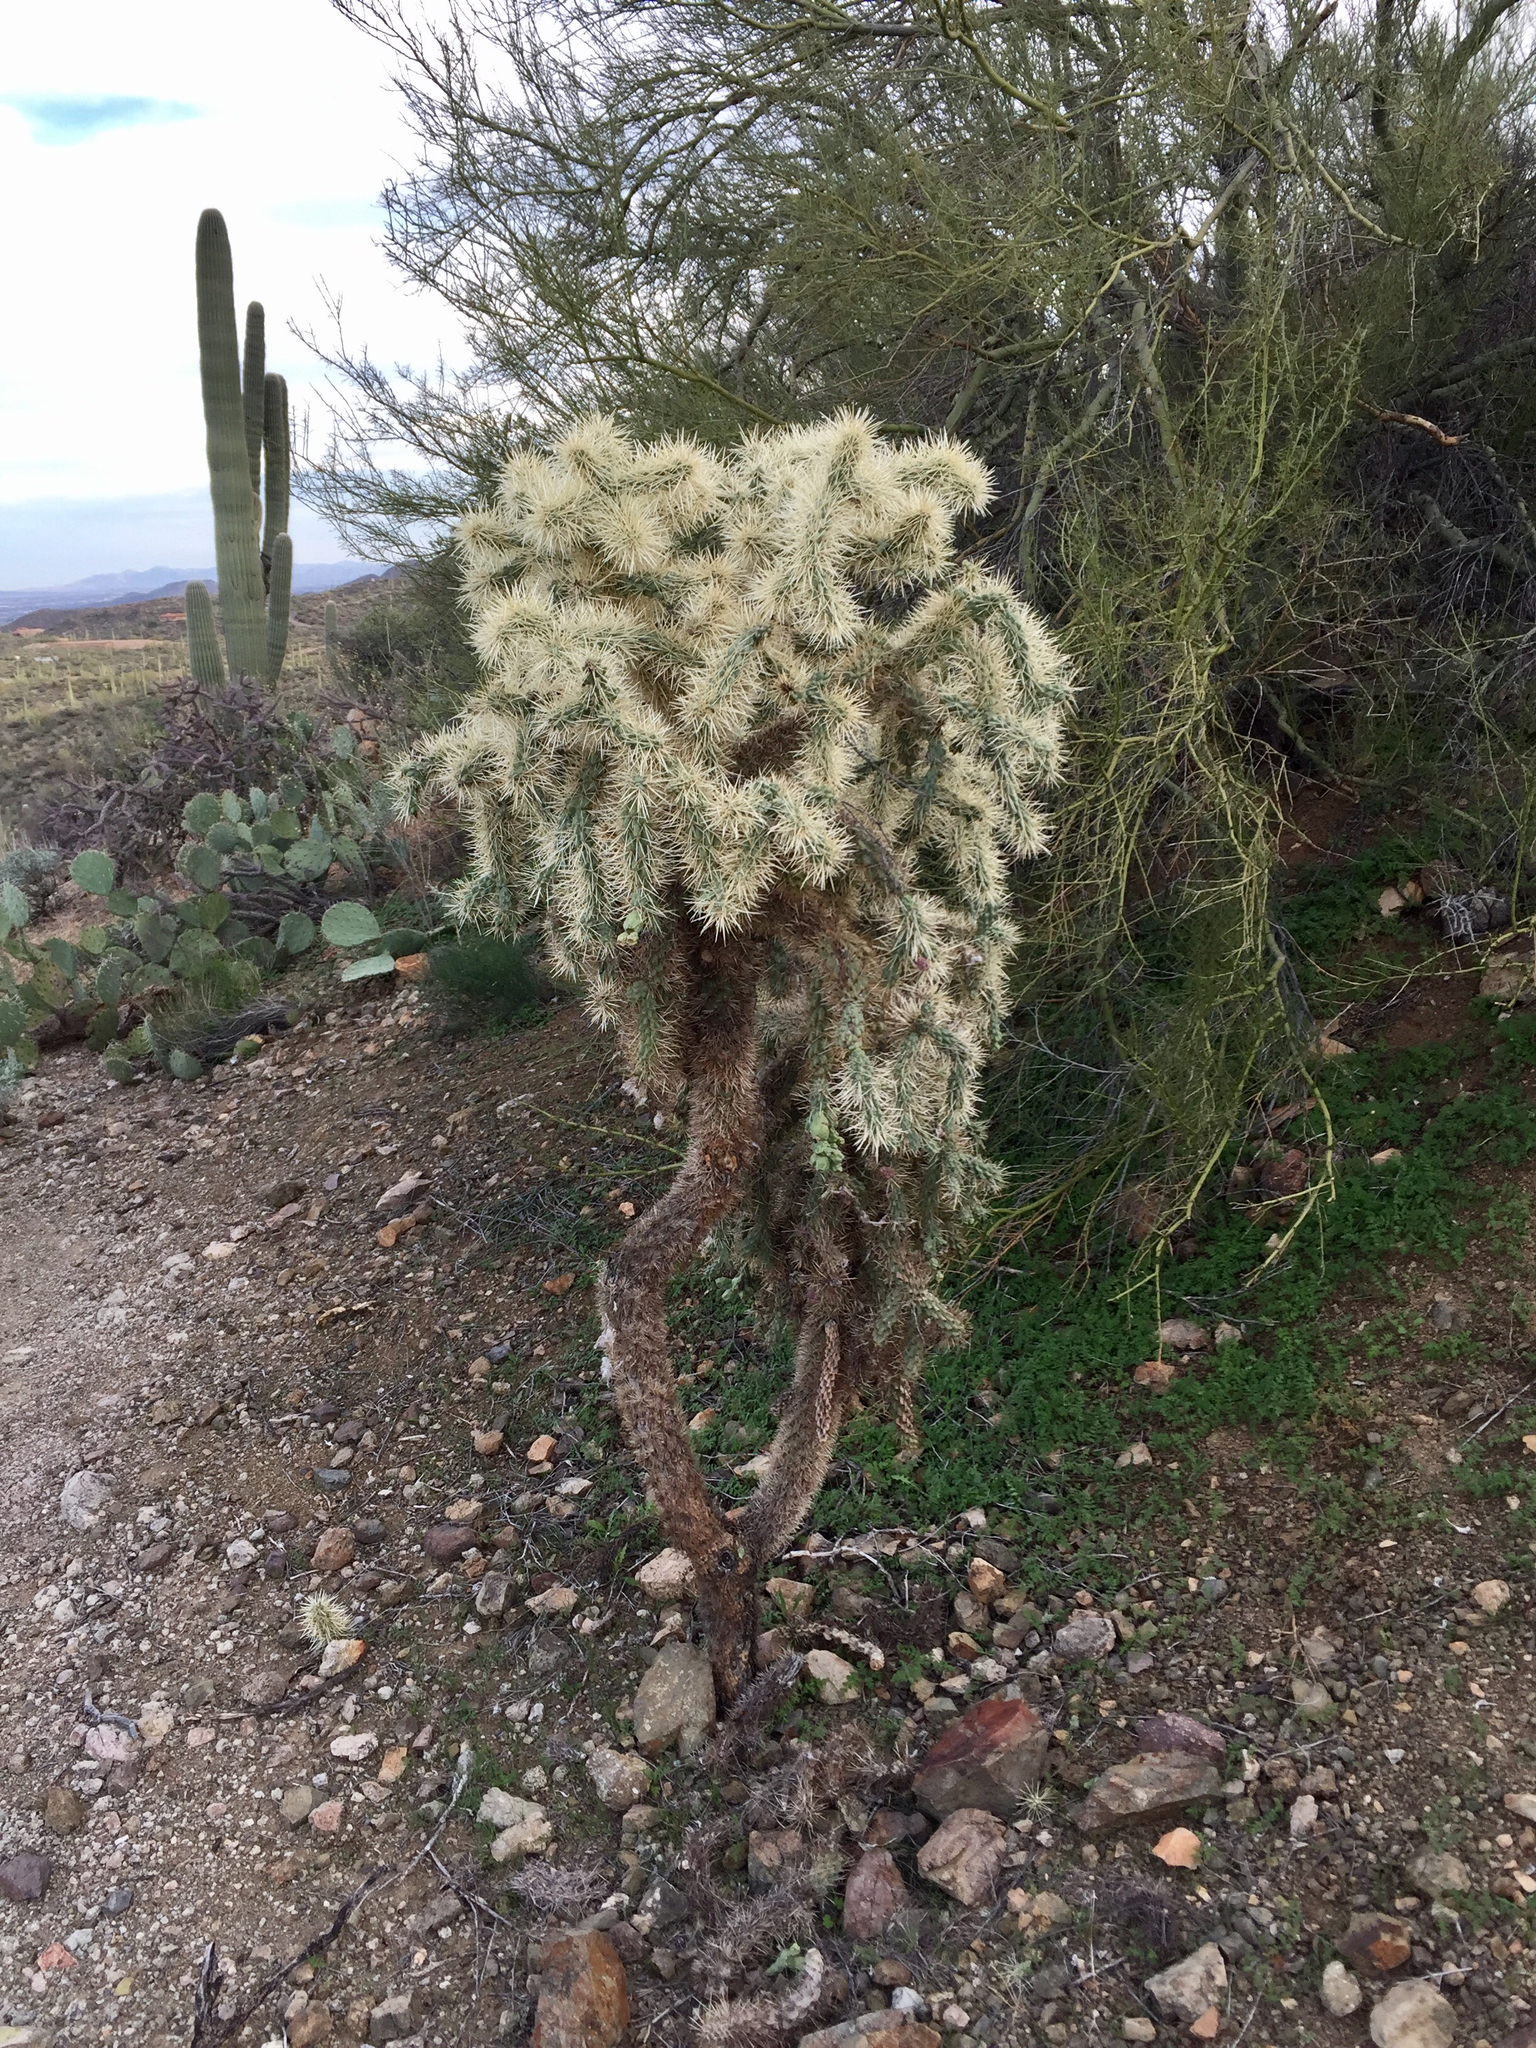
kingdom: Plantae
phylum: Tracheophyta
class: Magnoliopsida
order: Caryophyllales
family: Cactaceae
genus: Cylindropuntia
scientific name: Cylindropuntia fulgida
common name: Jumping cholla
